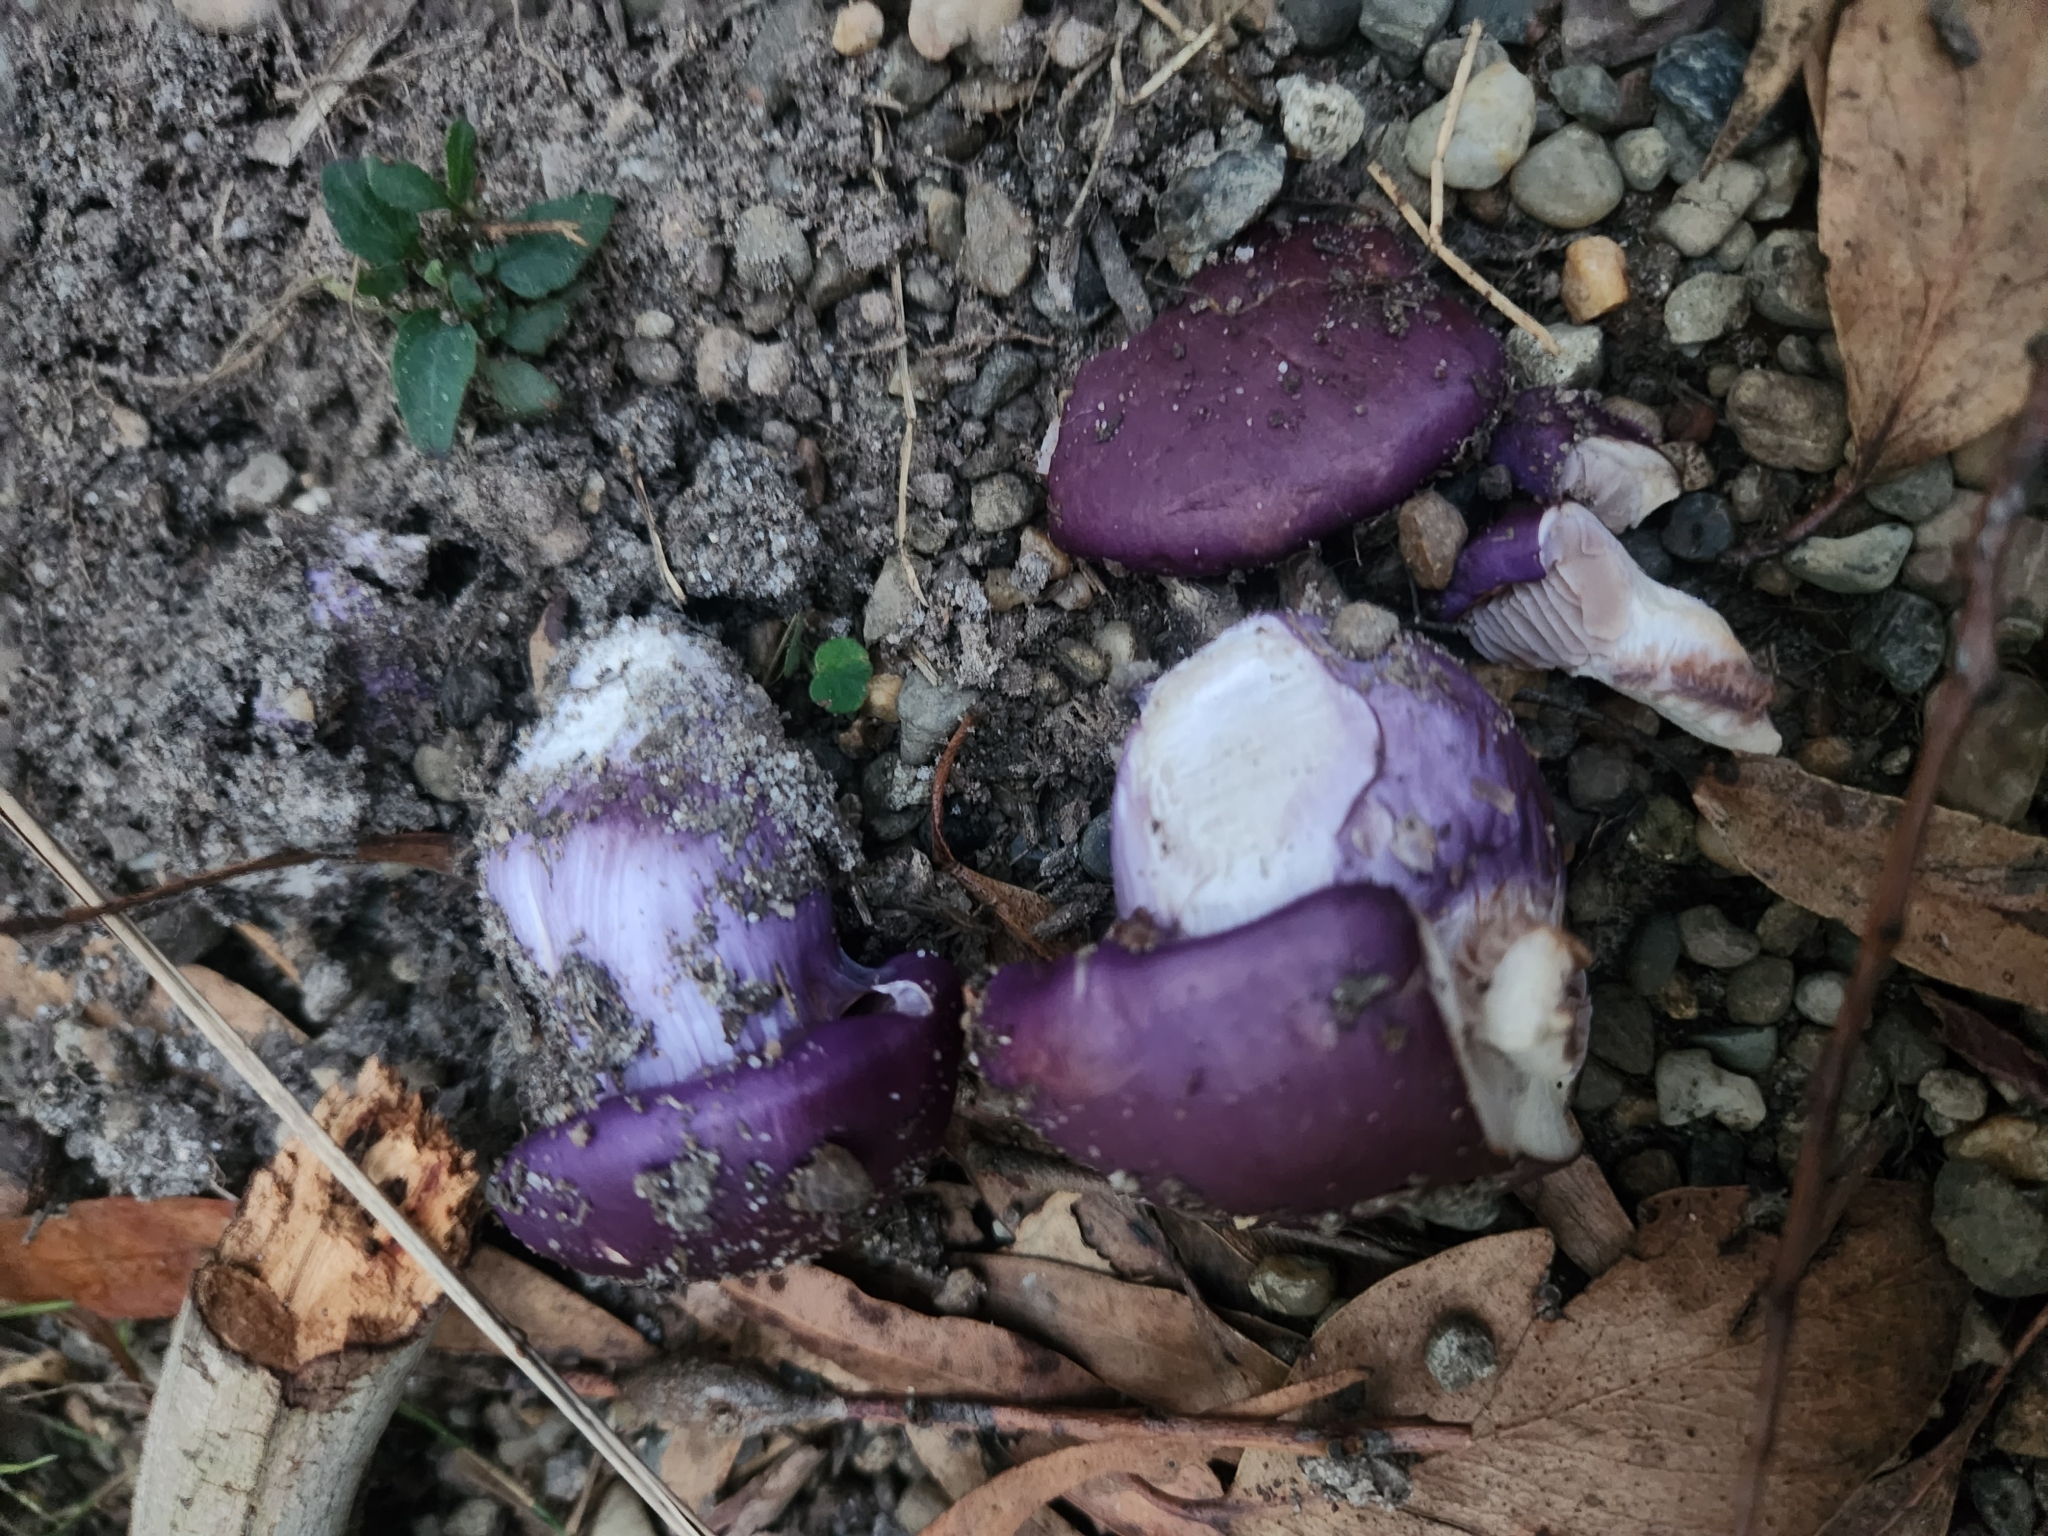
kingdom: Fungi
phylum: Basidiomycota
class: Agaricomycetes
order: Agaricales
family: Cortinariaceae
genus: Cortinarius
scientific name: Cortinarius archeri
